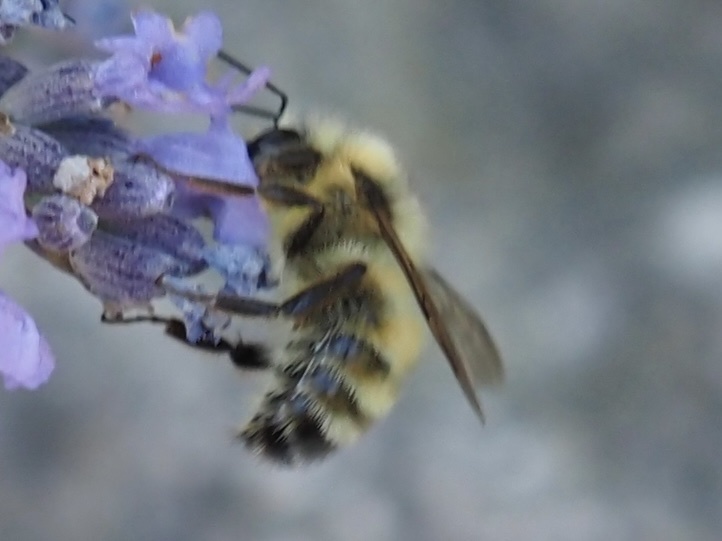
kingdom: Animalia
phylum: Arthropoda
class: Insecta
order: Hymenoptera
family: Apidae
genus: Bombus
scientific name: Bombus flavifrons
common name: Yellow head bumble bee
